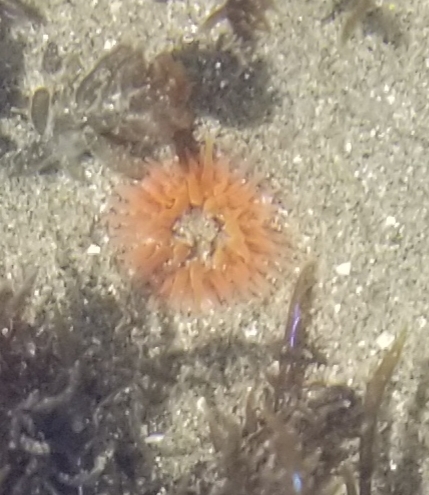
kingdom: Animalia
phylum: Cnidaria
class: Anthozoa
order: Actiniaria
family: Actiniidae
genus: Anthopleura
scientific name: Anthopleura artemisia
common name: Buried sea anemone
